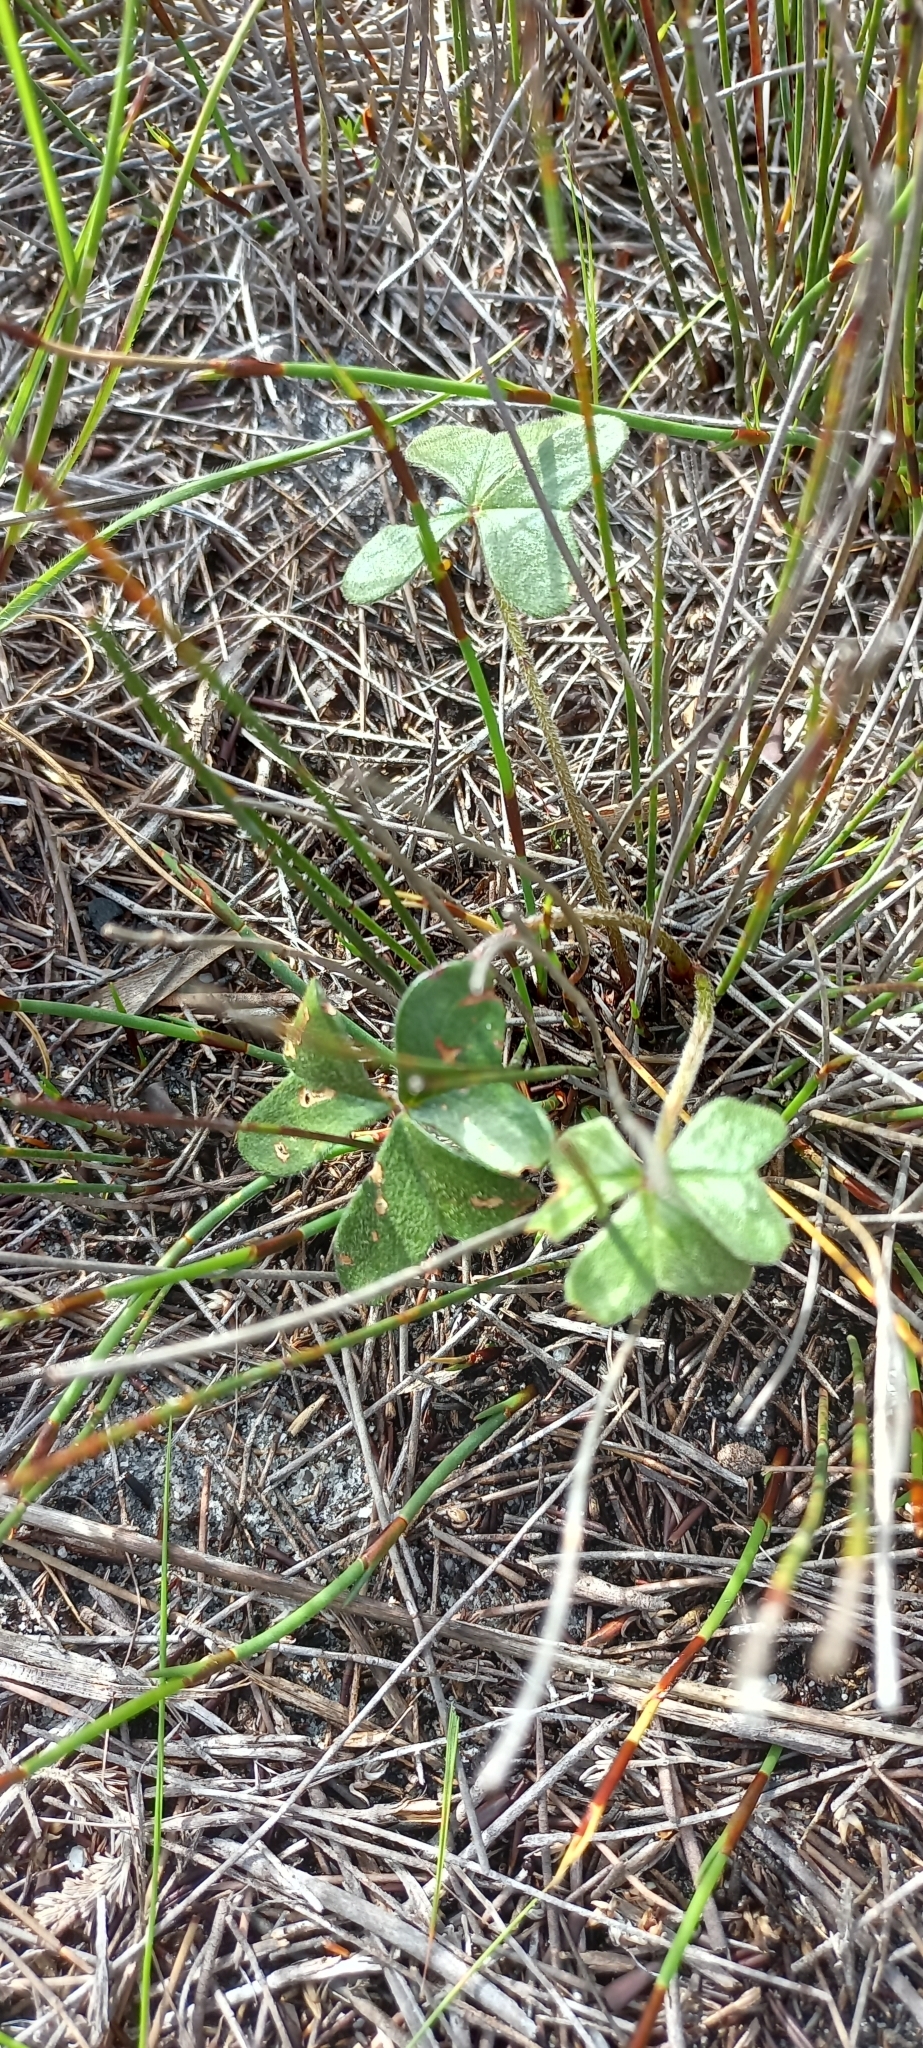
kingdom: Plantae
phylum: Tracheophyta
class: Magnoliopsida
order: Oxalidales
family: Oxalidaceae
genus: Oxalis
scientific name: Oxalis truncatula
